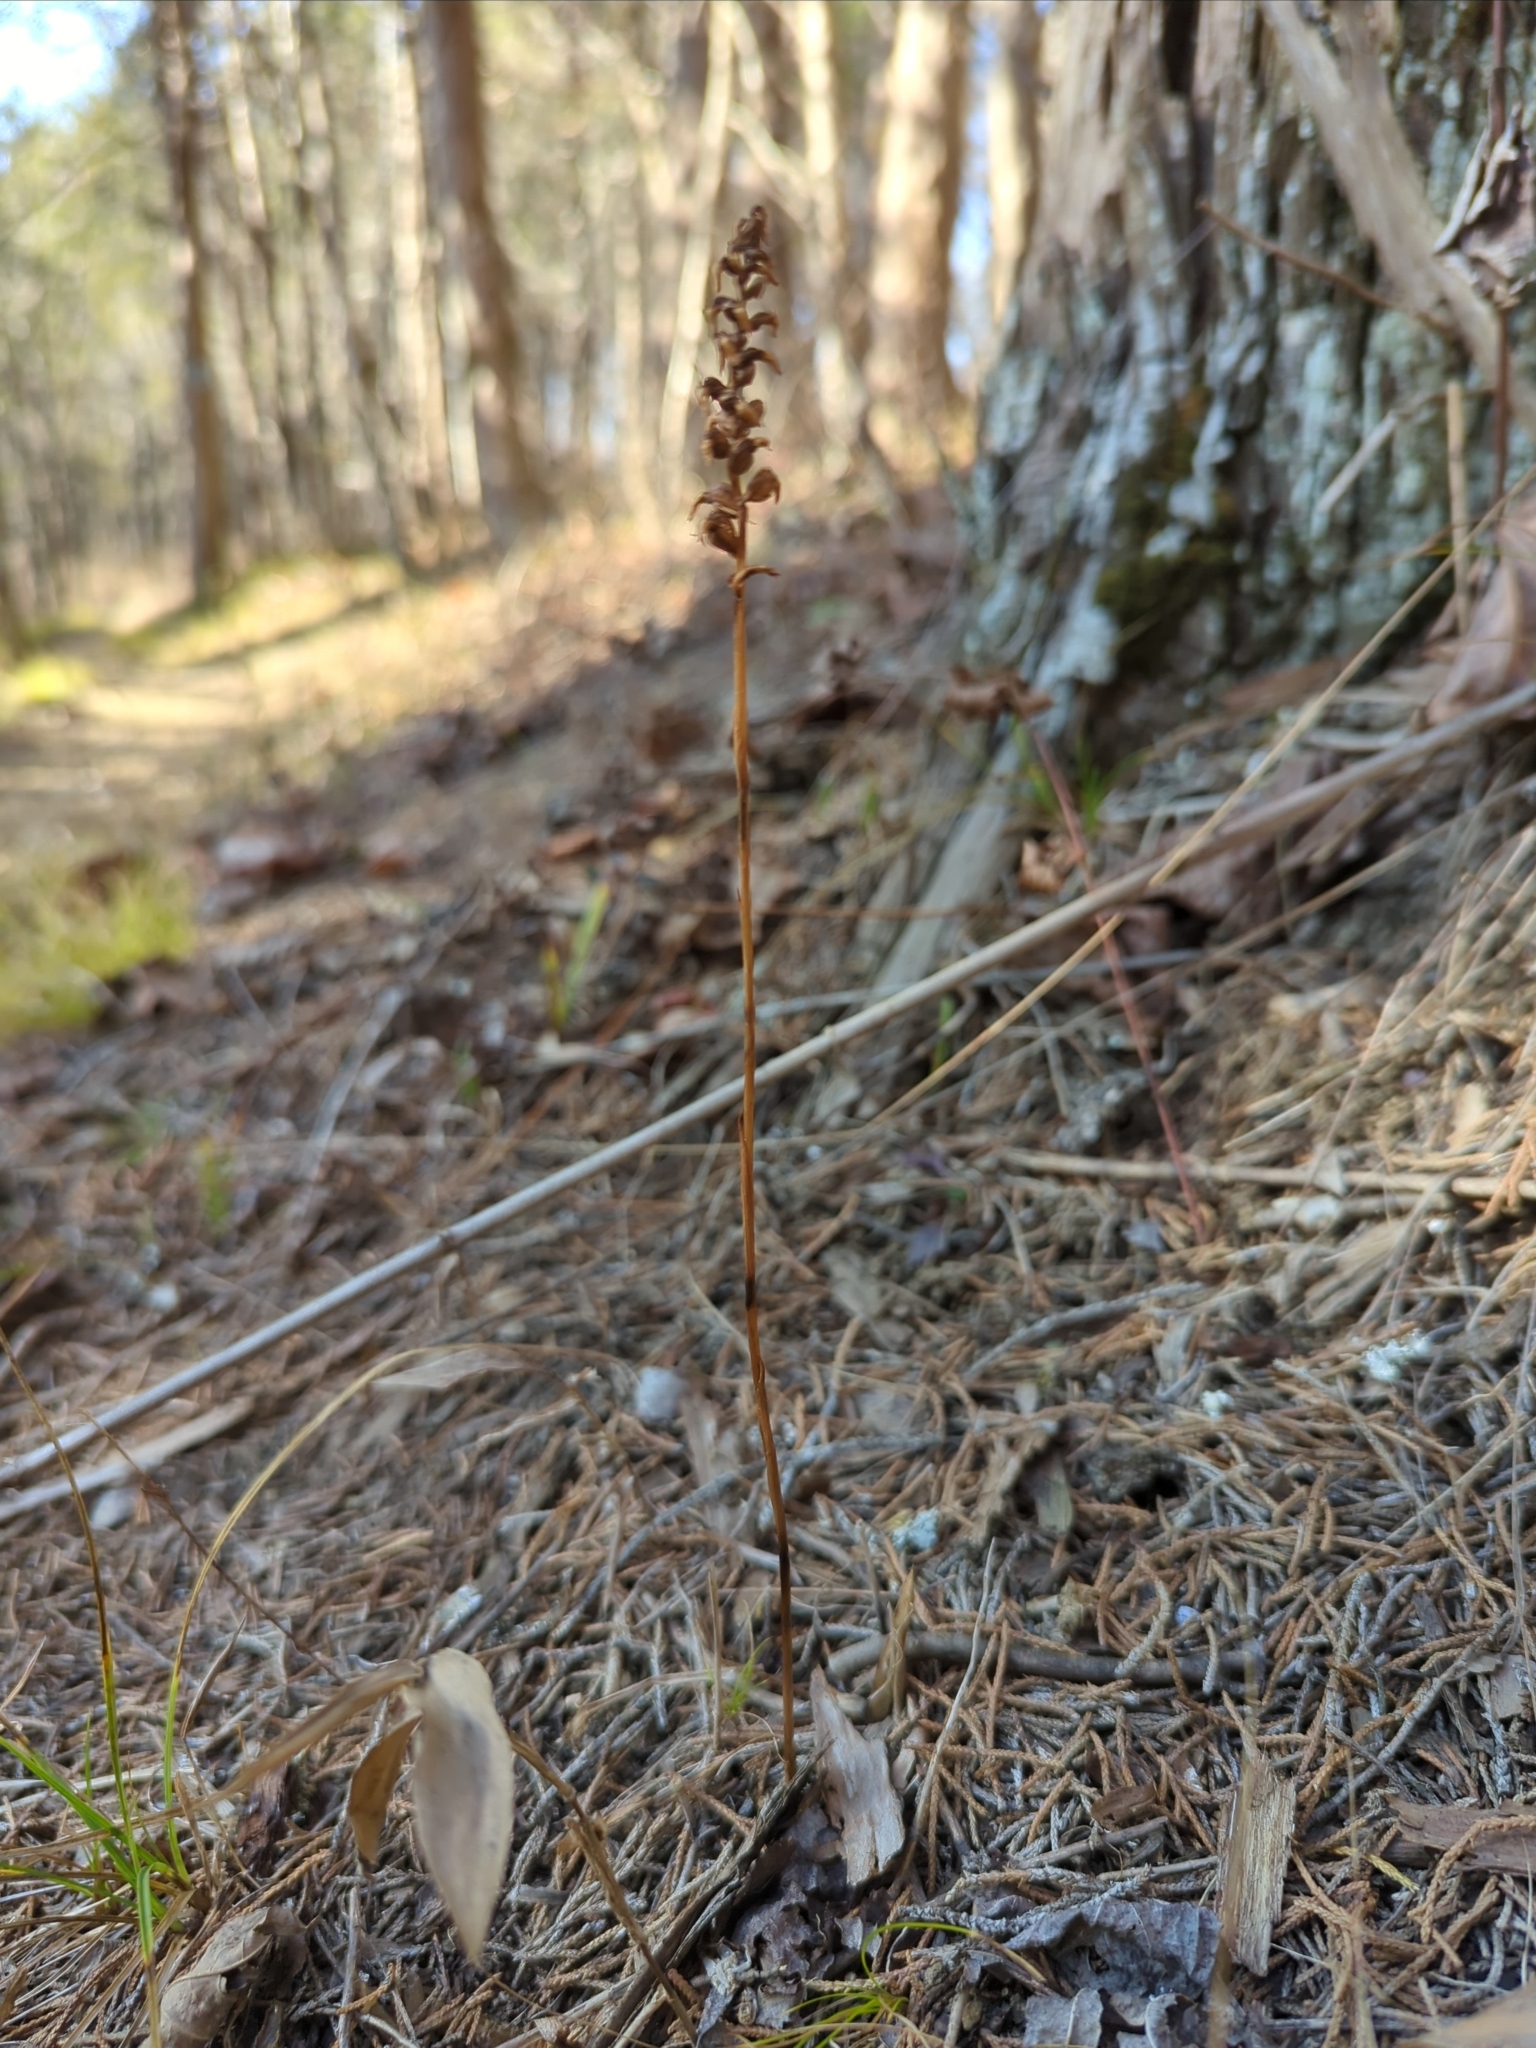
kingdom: Plantae
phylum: Tracheophyta
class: Liliopsida
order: Asparagales
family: Orchidaceae
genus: Spiranthes
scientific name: Spiranthes ovalis
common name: October ladies'-tresses
